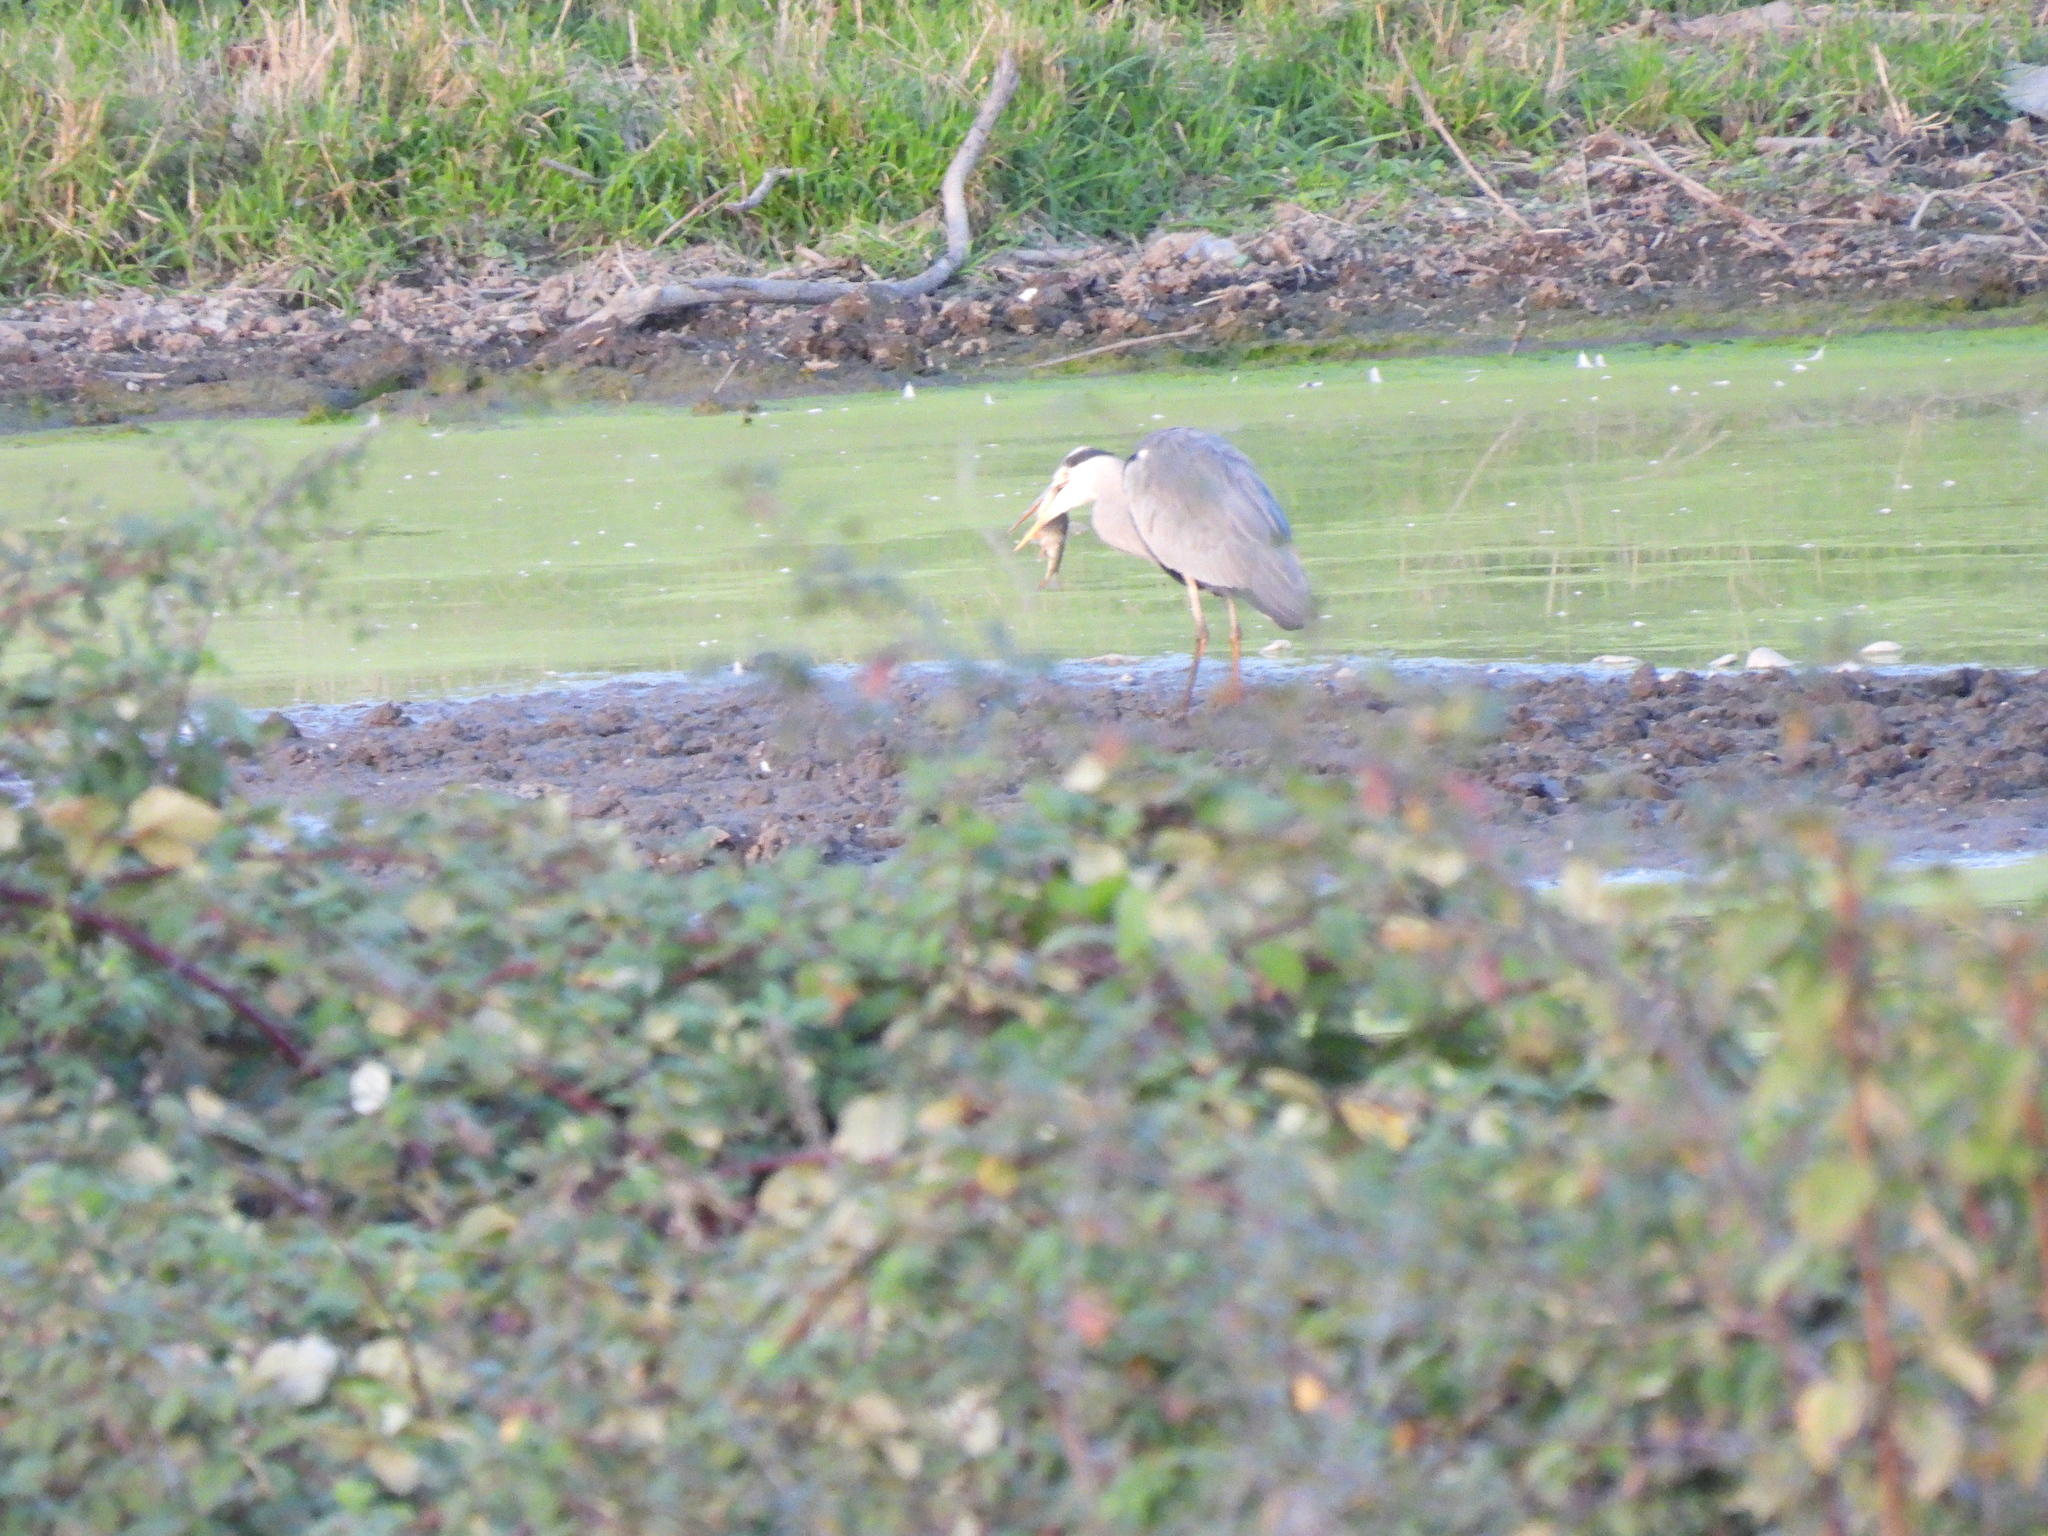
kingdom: Animalia
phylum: Chordata
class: Aves
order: Pelecaniformes
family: Ardeidae
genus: Ardea
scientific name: Ardea cinerea
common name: Grey heron
